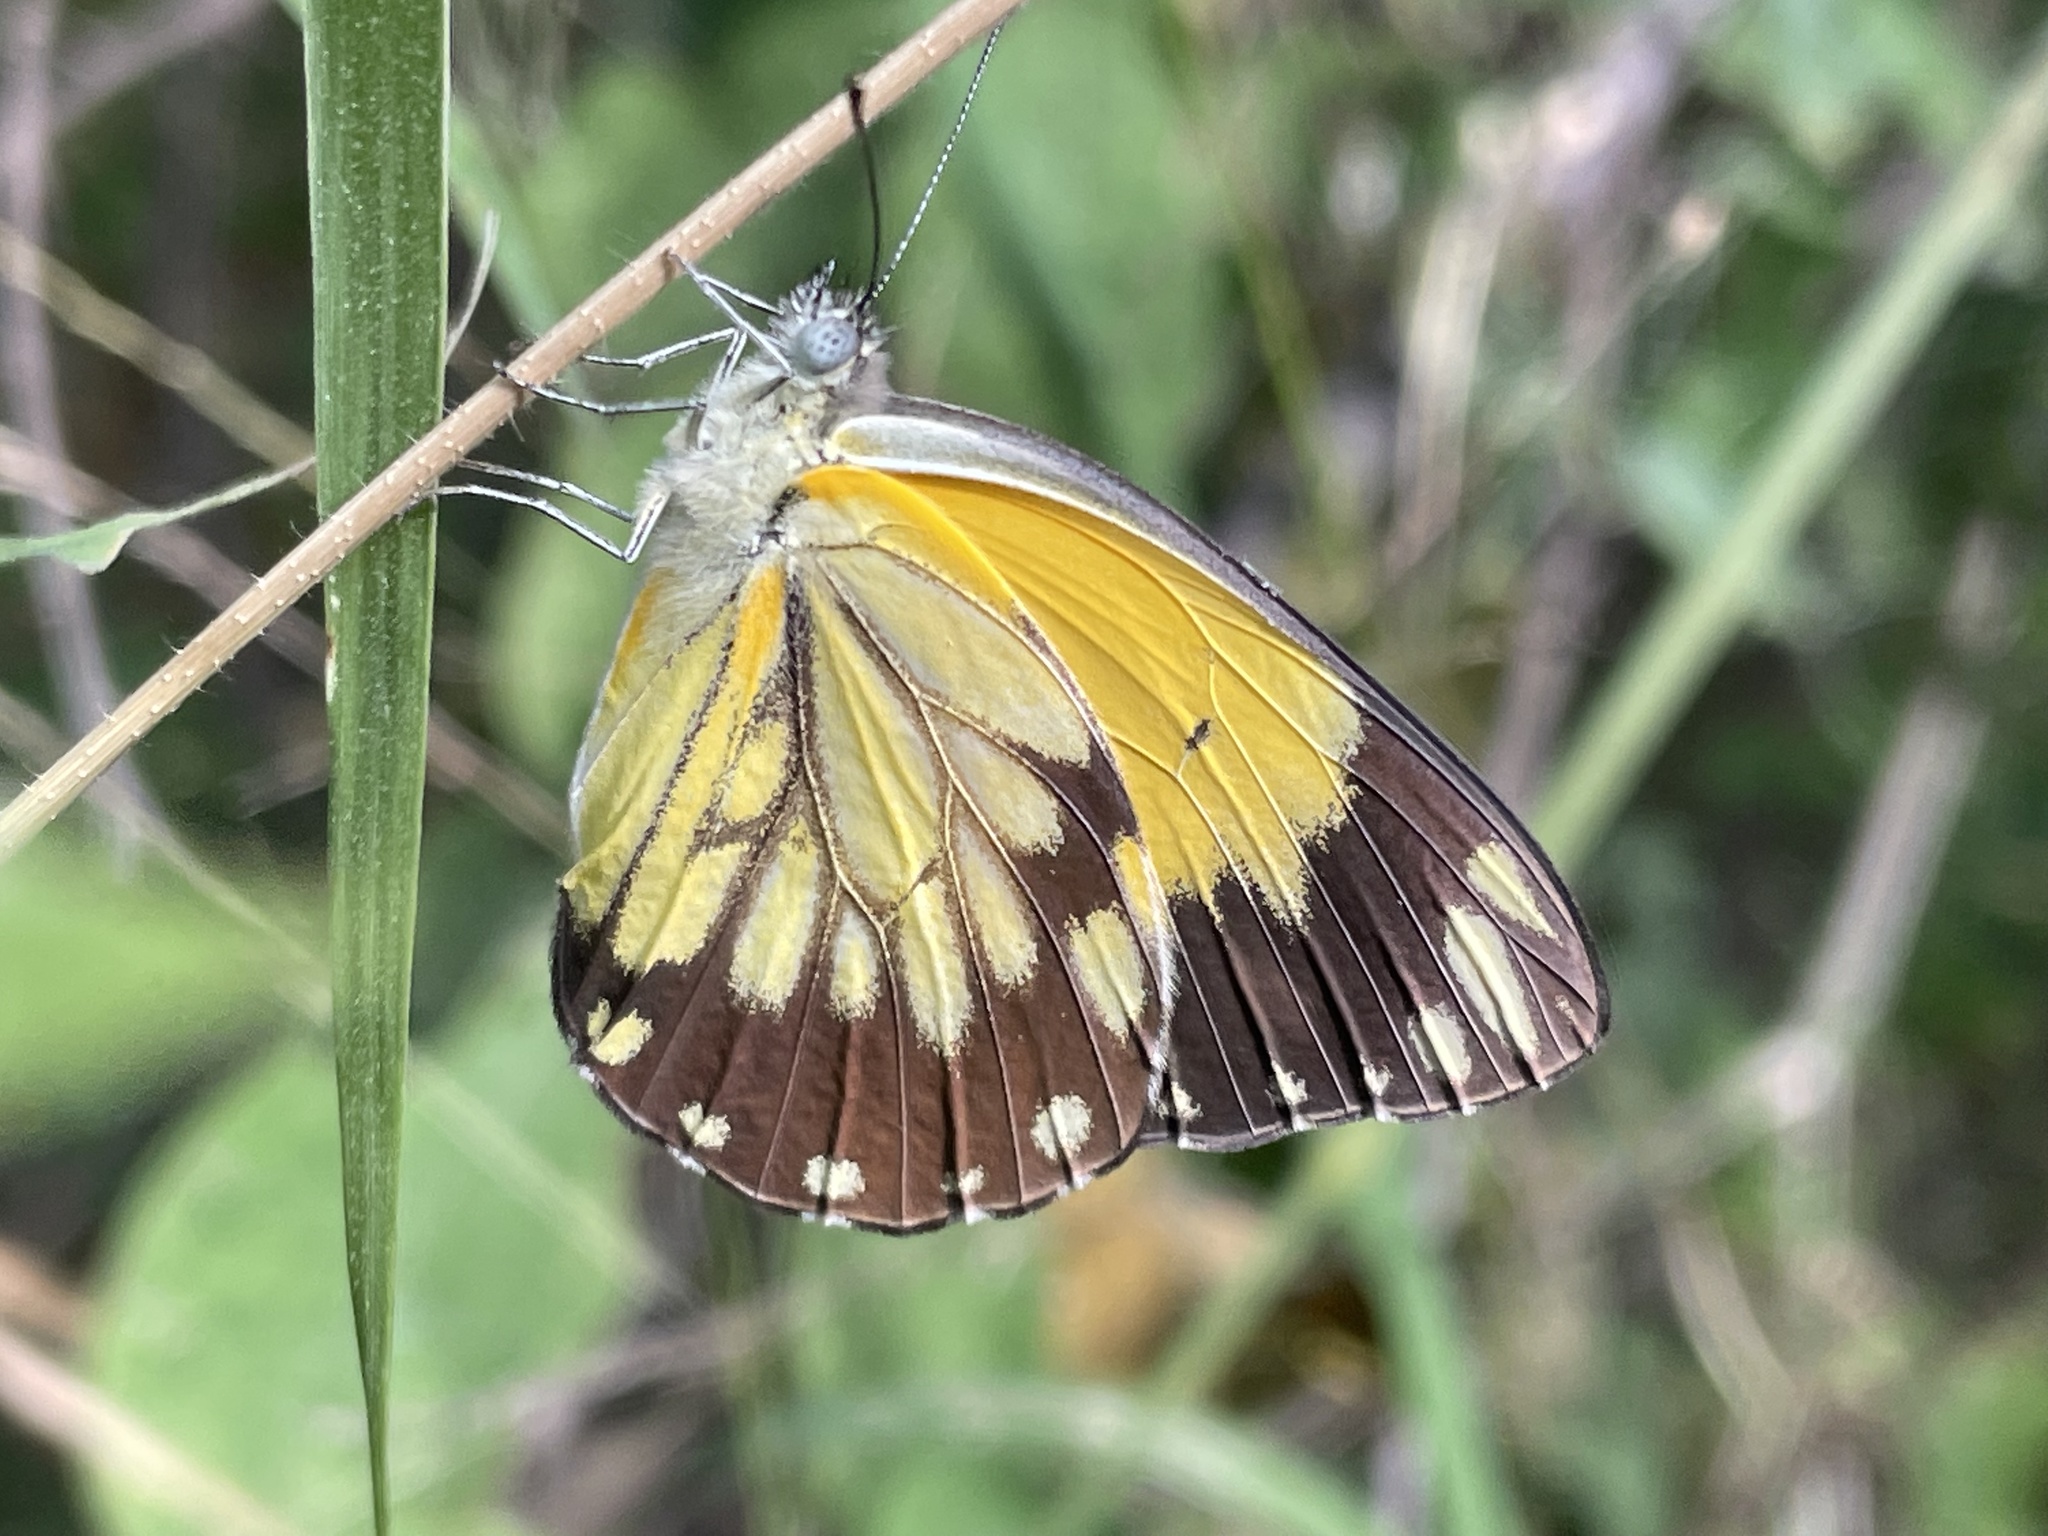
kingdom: Animalia
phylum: Arthropoda
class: Insecta
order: Lepidoptera
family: Pieridae
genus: Belenois
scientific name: Belenois creona
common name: African caper white
